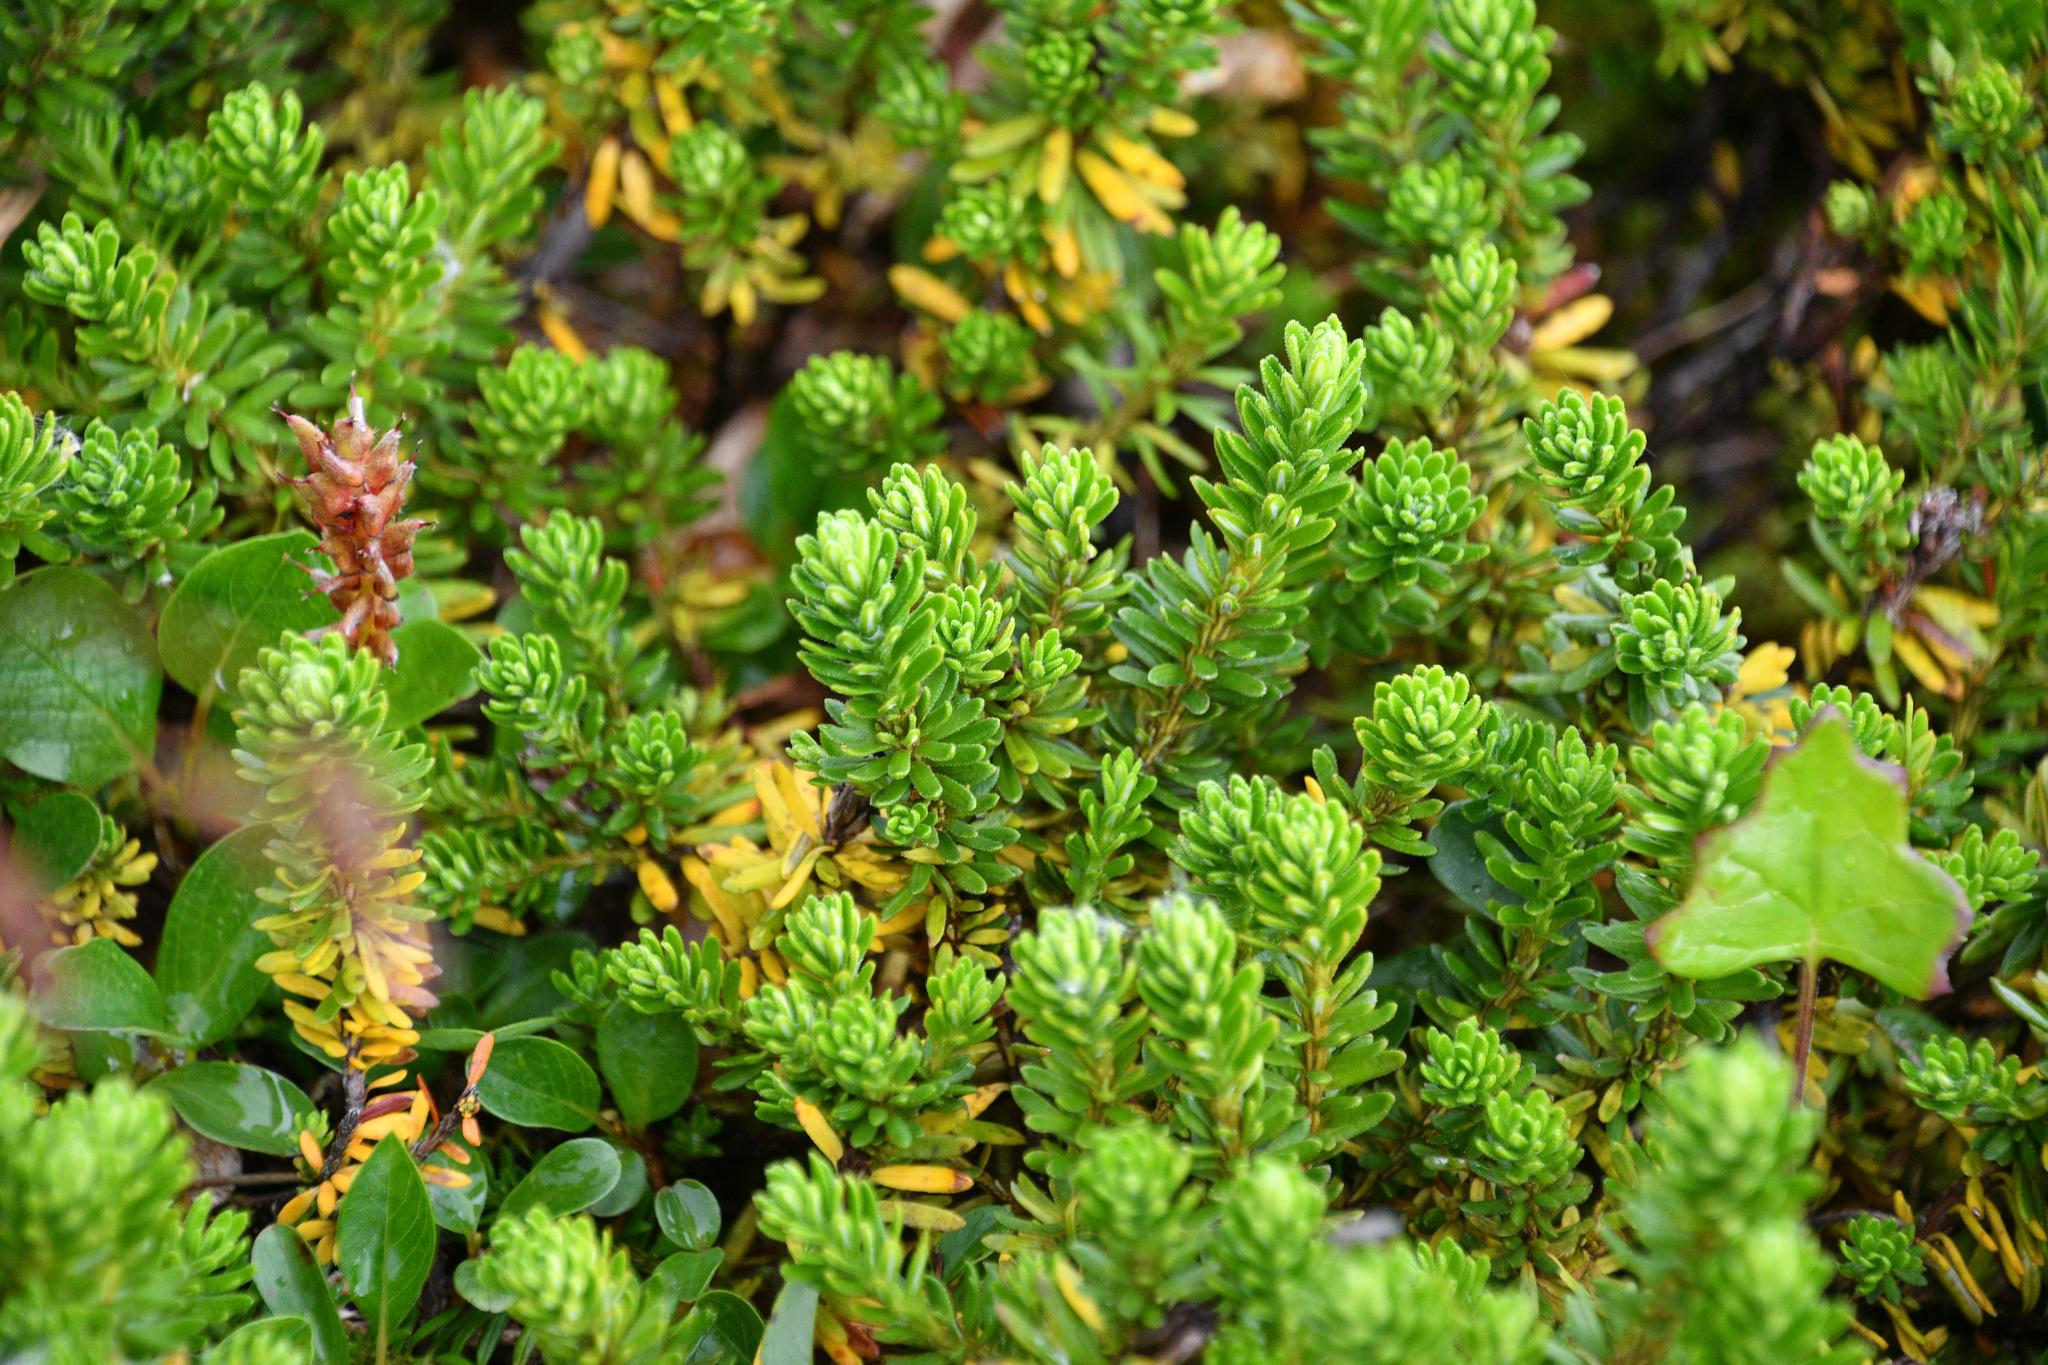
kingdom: Plantae
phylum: Tracheophyta
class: Magnoliopsida
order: Ericales
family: Ericaceae
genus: Empetrum
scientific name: Empetrum nigrum
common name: Black crowberry
